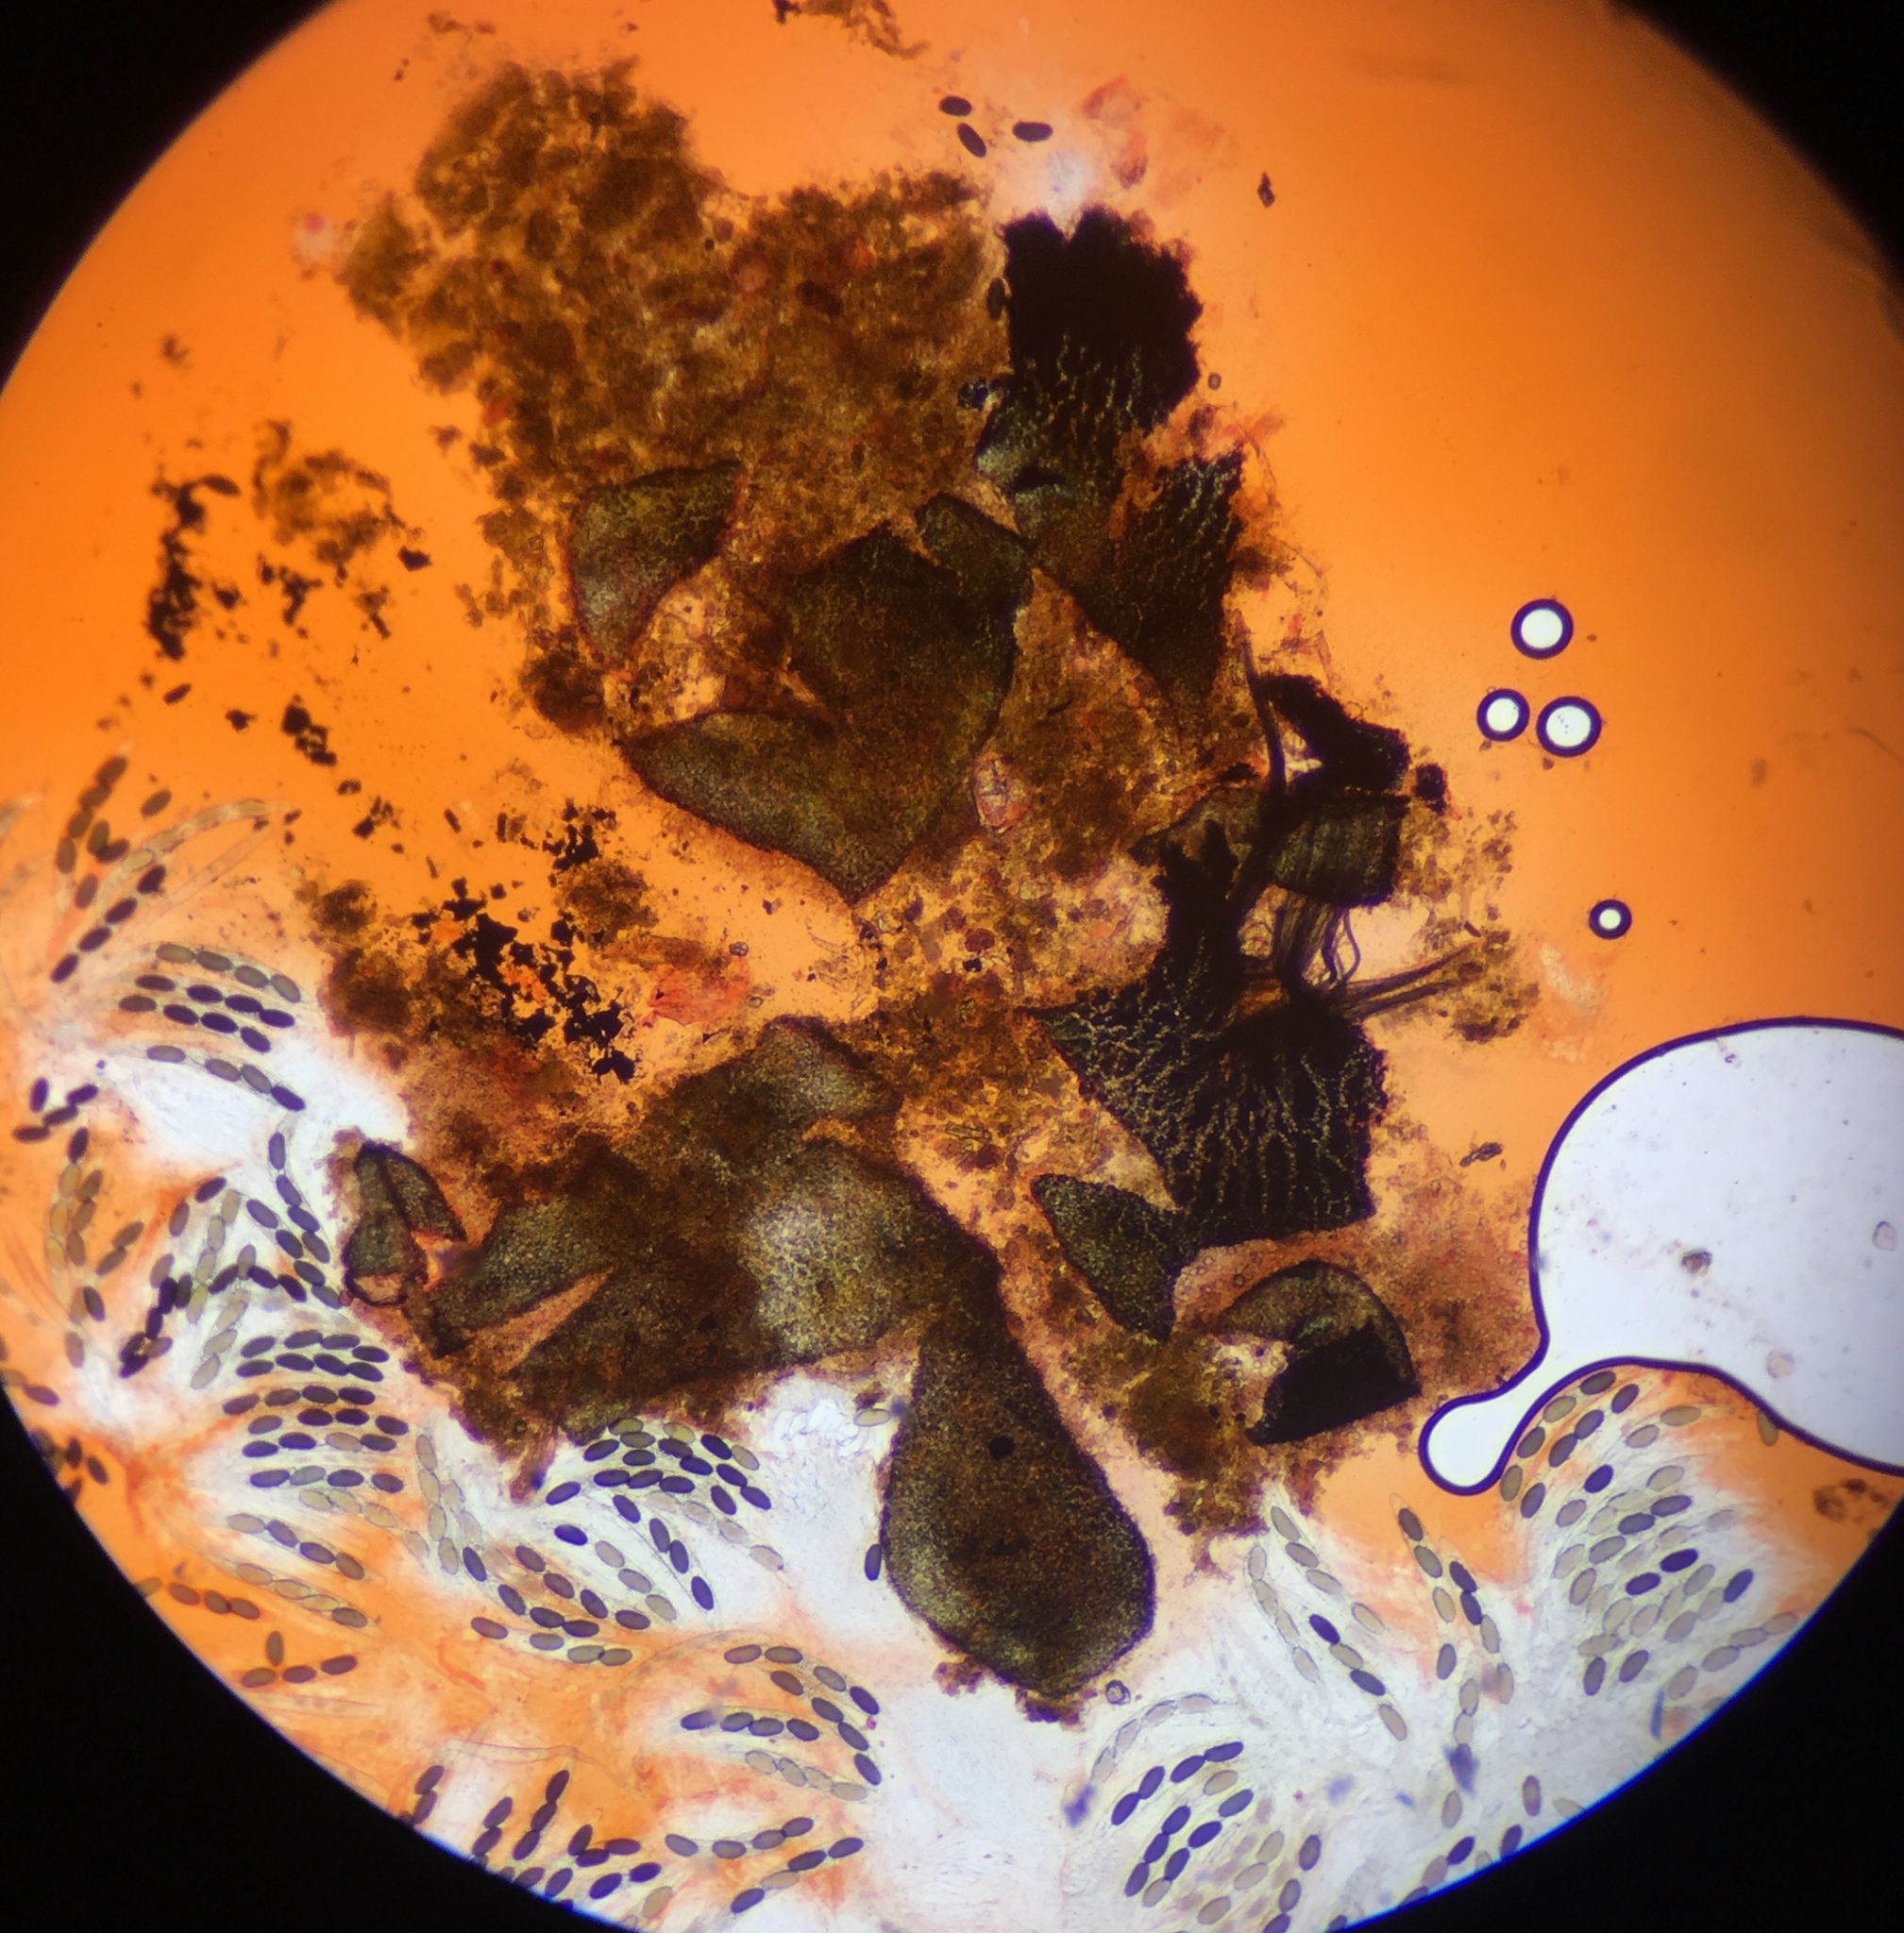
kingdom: Fungi
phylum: Ascomycota
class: Sordariomycetes
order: Sordariales
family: Podosporaceae
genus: Triangularia
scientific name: Triangularia arizonensis
